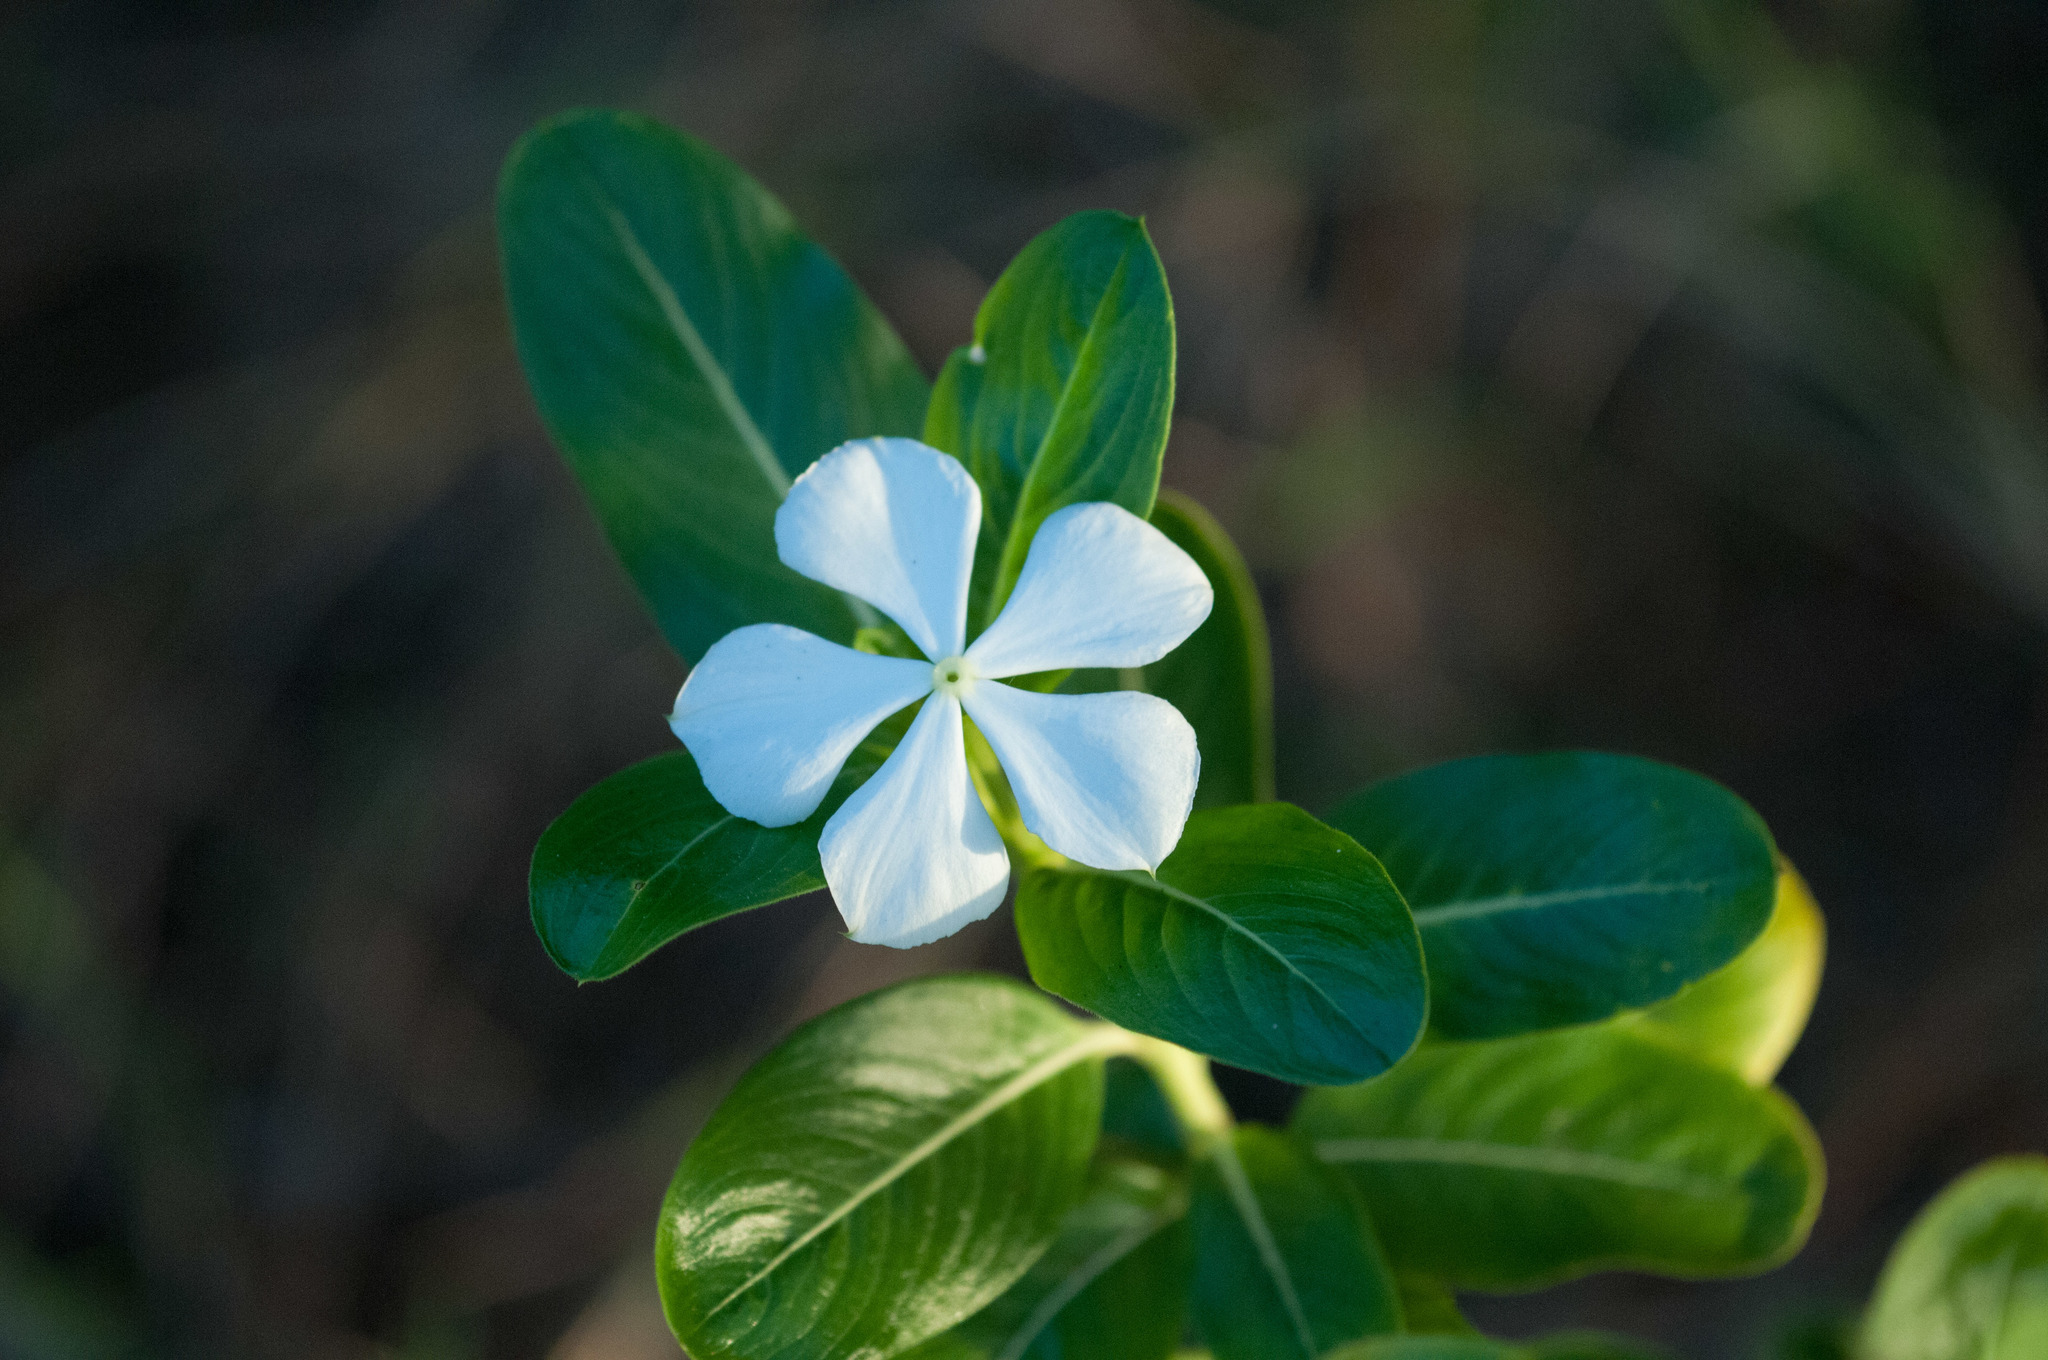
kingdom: Plantae
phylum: Tracheophyta
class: Magnoliopsida
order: Gentianales
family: Apocynaceae
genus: Catharanthus
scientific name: Catharanthus roseus
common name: Madagascar periwinkle
